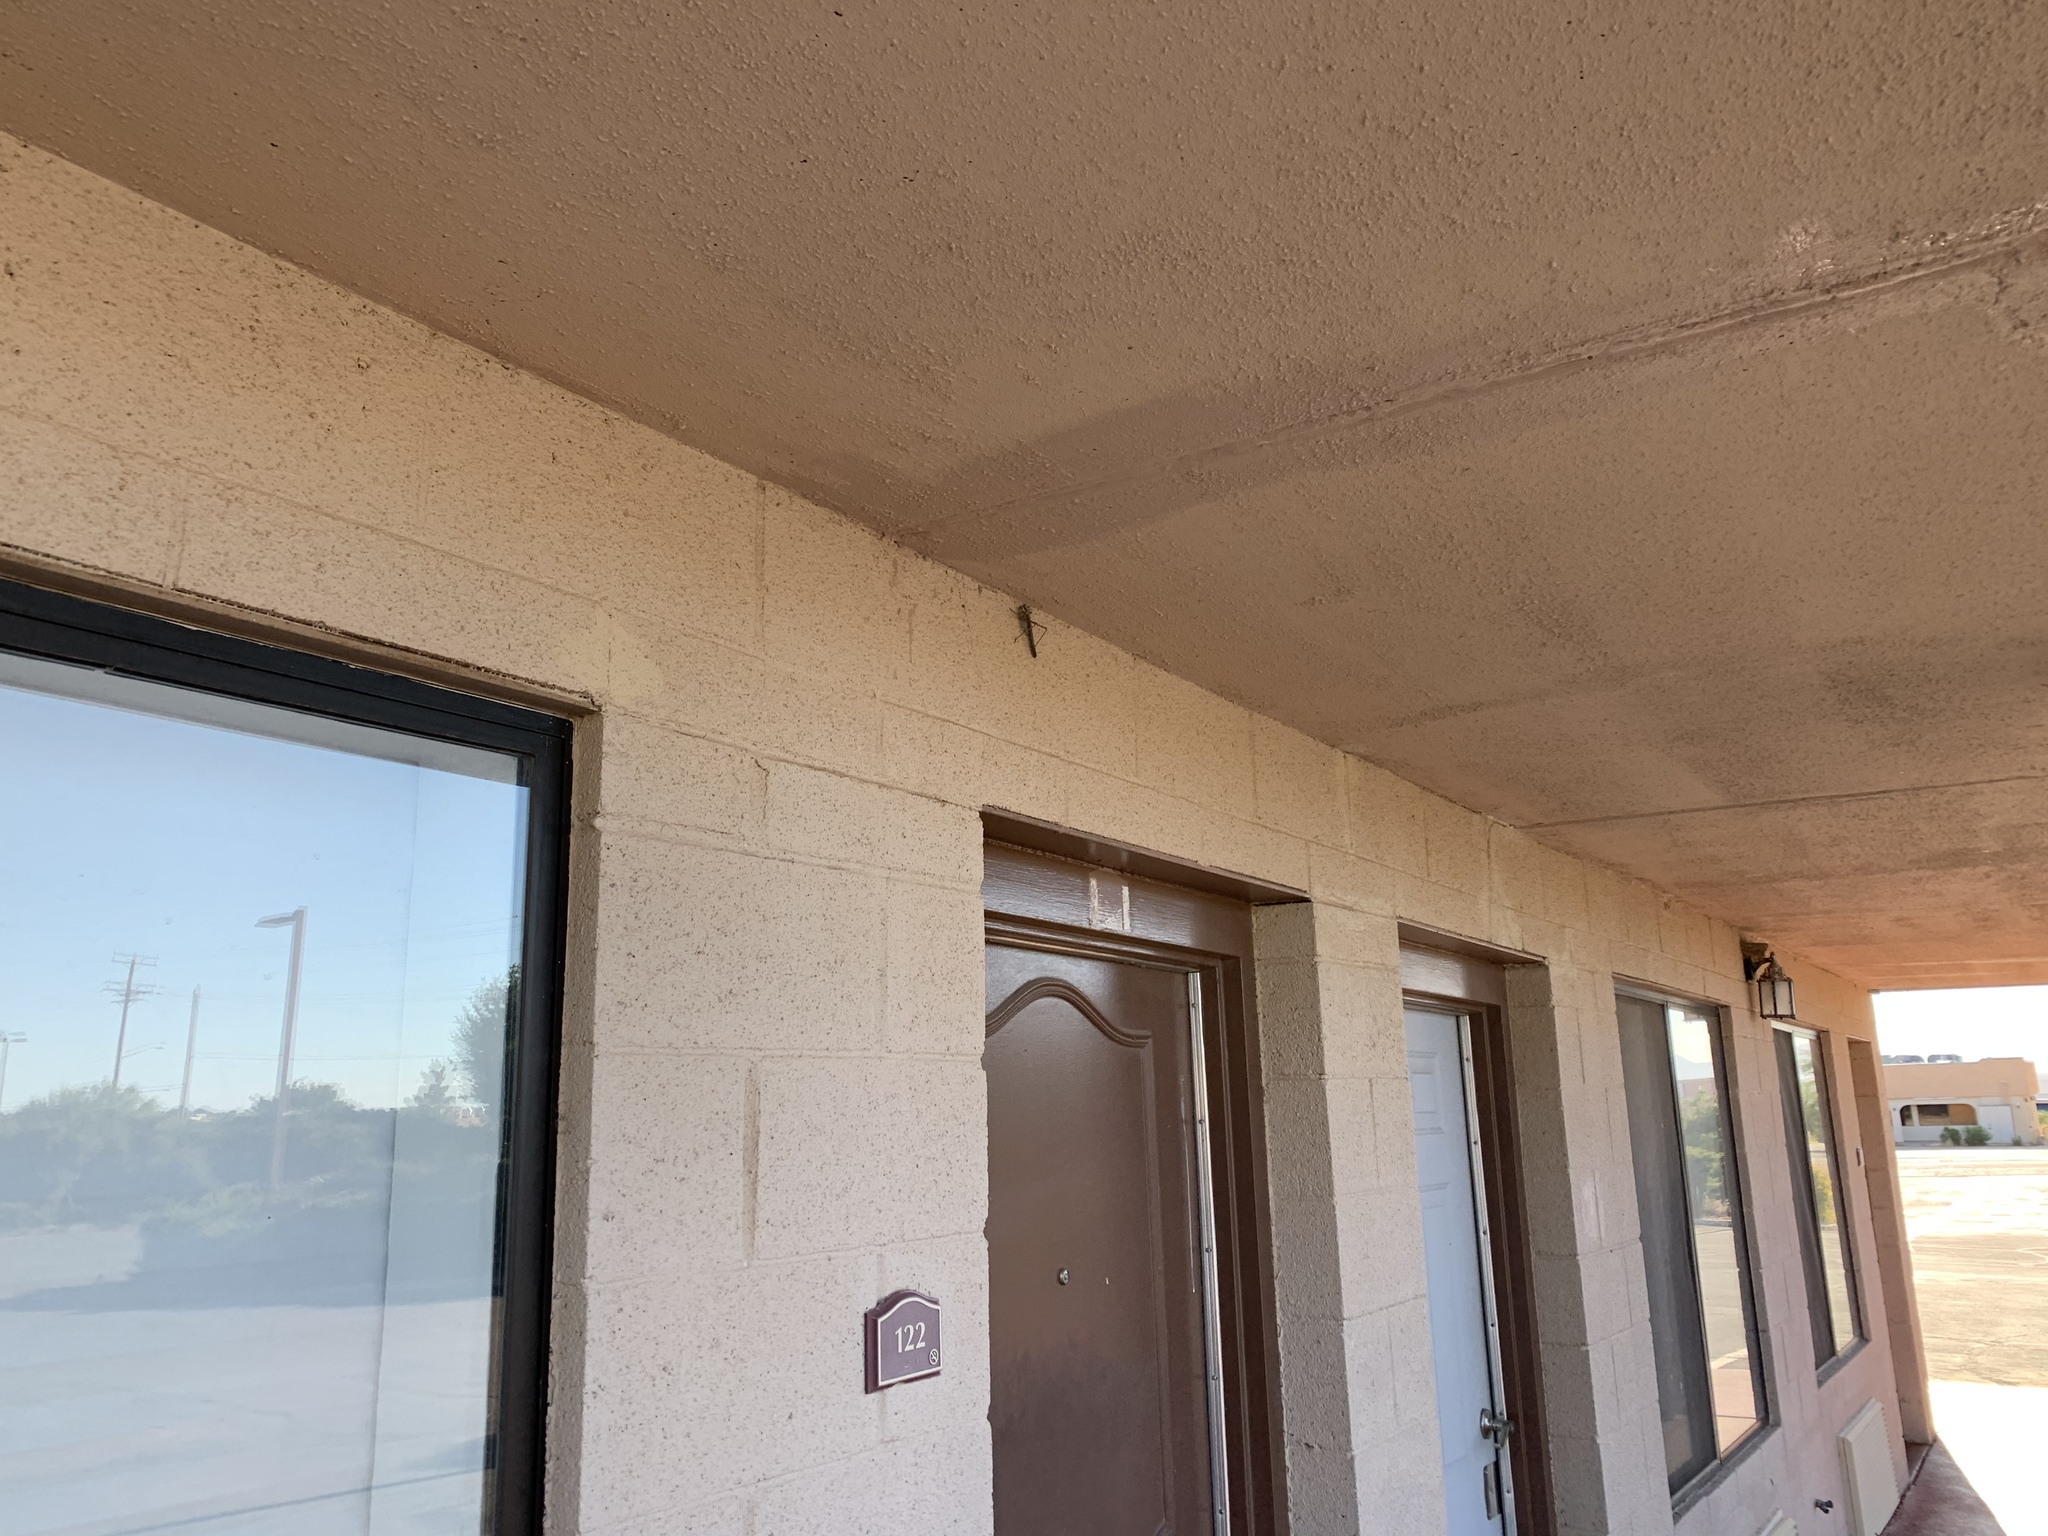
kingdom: Animalia
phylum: Arthropoda
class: Insecta
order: Orthoptera
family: Tettigoniidae
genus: Capnobotes
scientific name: Capnobotes fuliginosus
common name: Sooty longwing
